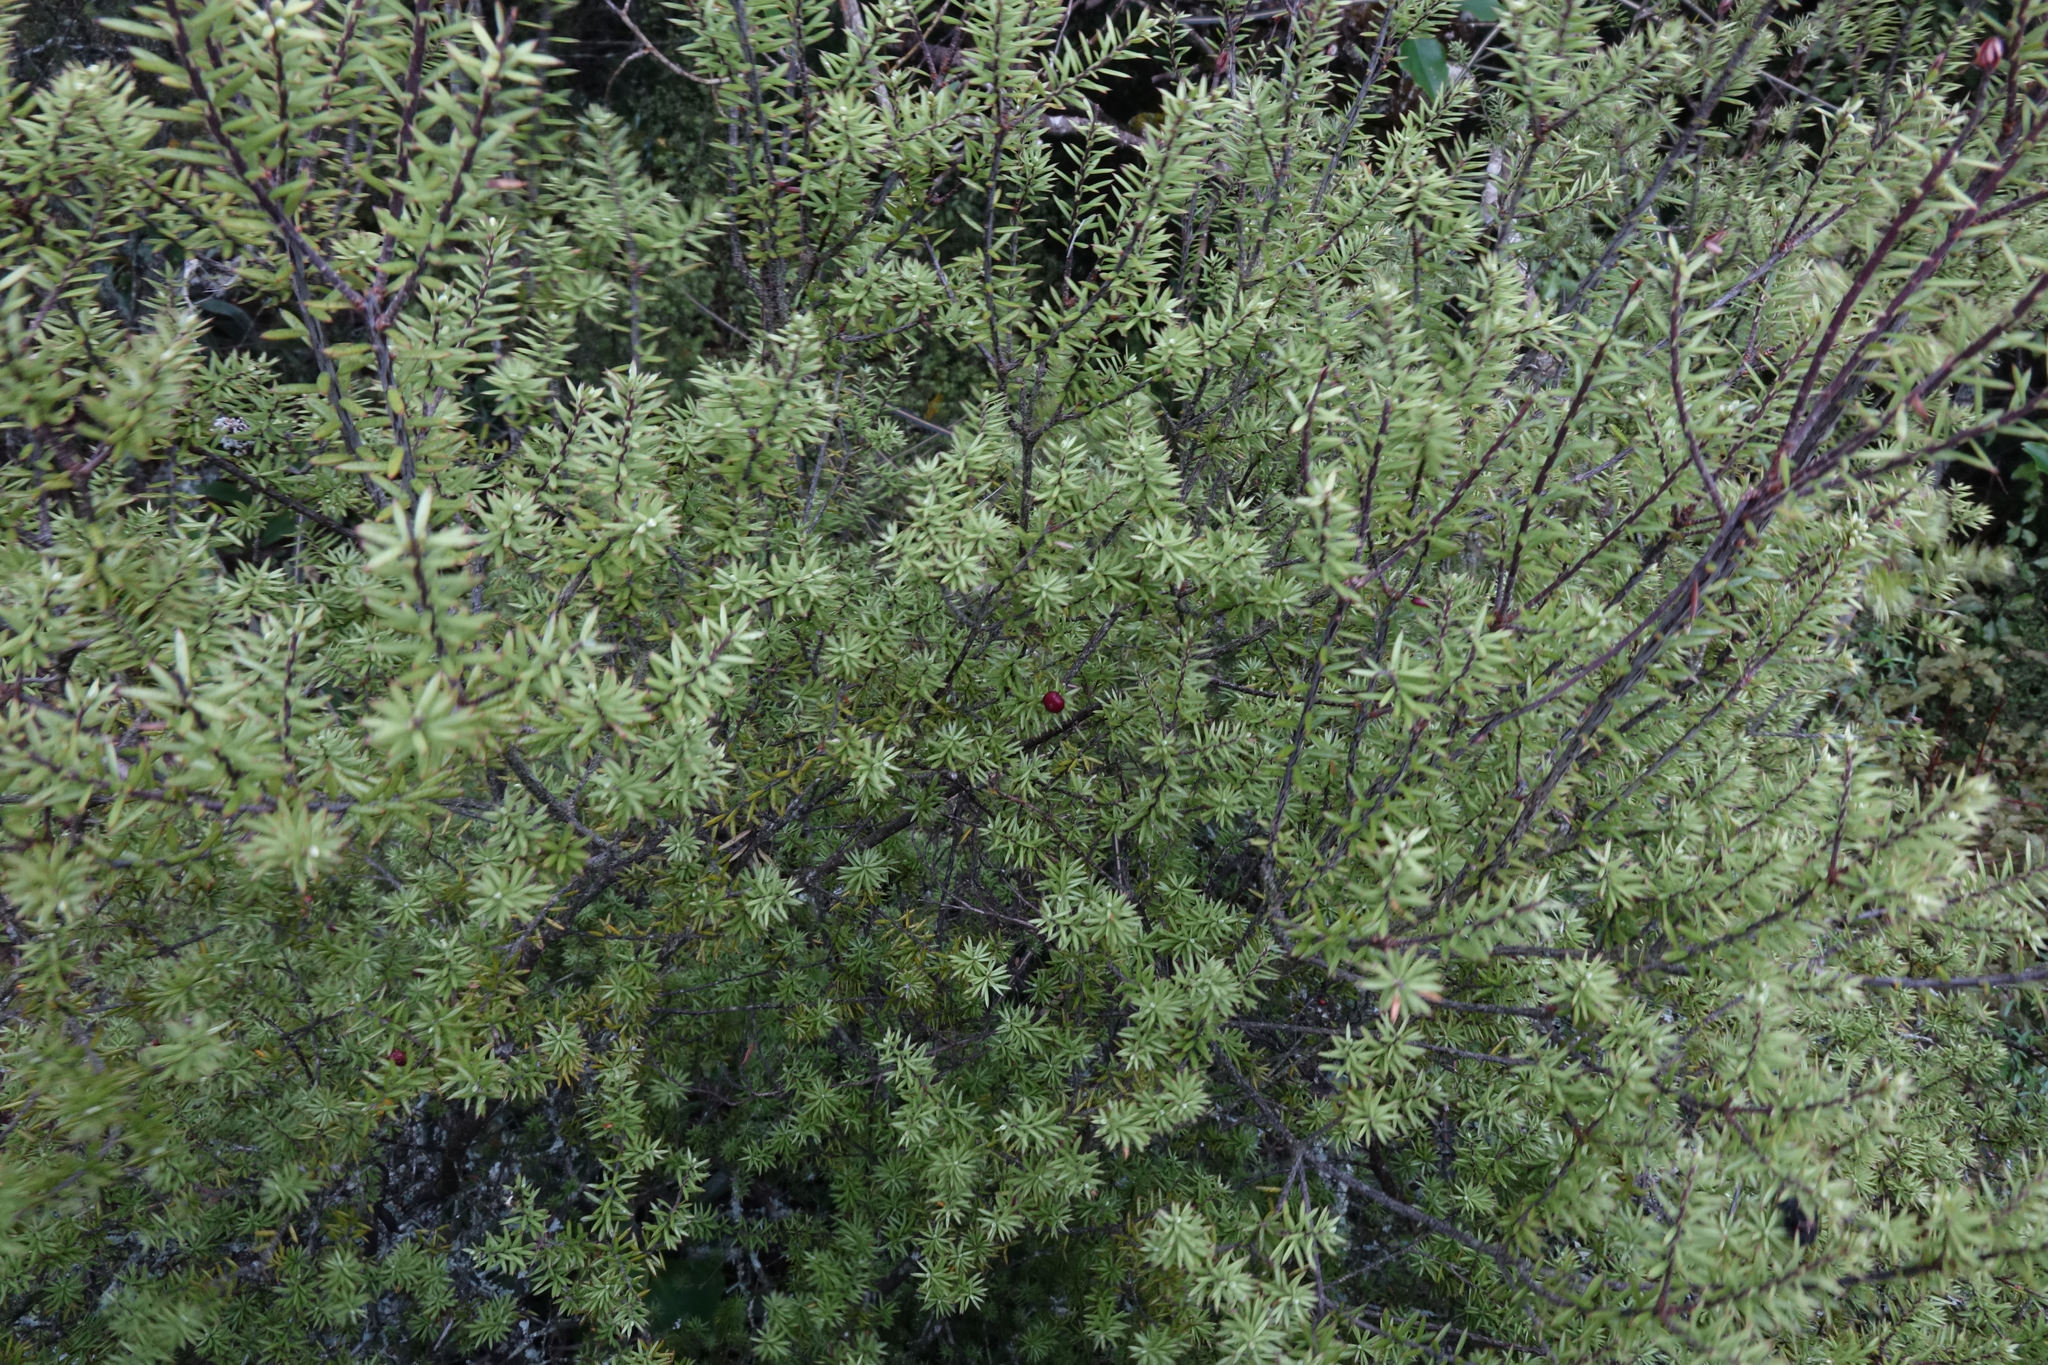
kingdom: Plantae
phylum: Tracheophyta
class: Magnoliopsida
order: Ericales
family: Ericaceae
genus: Leptecophylla
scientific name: Leptecophylla juniperina
